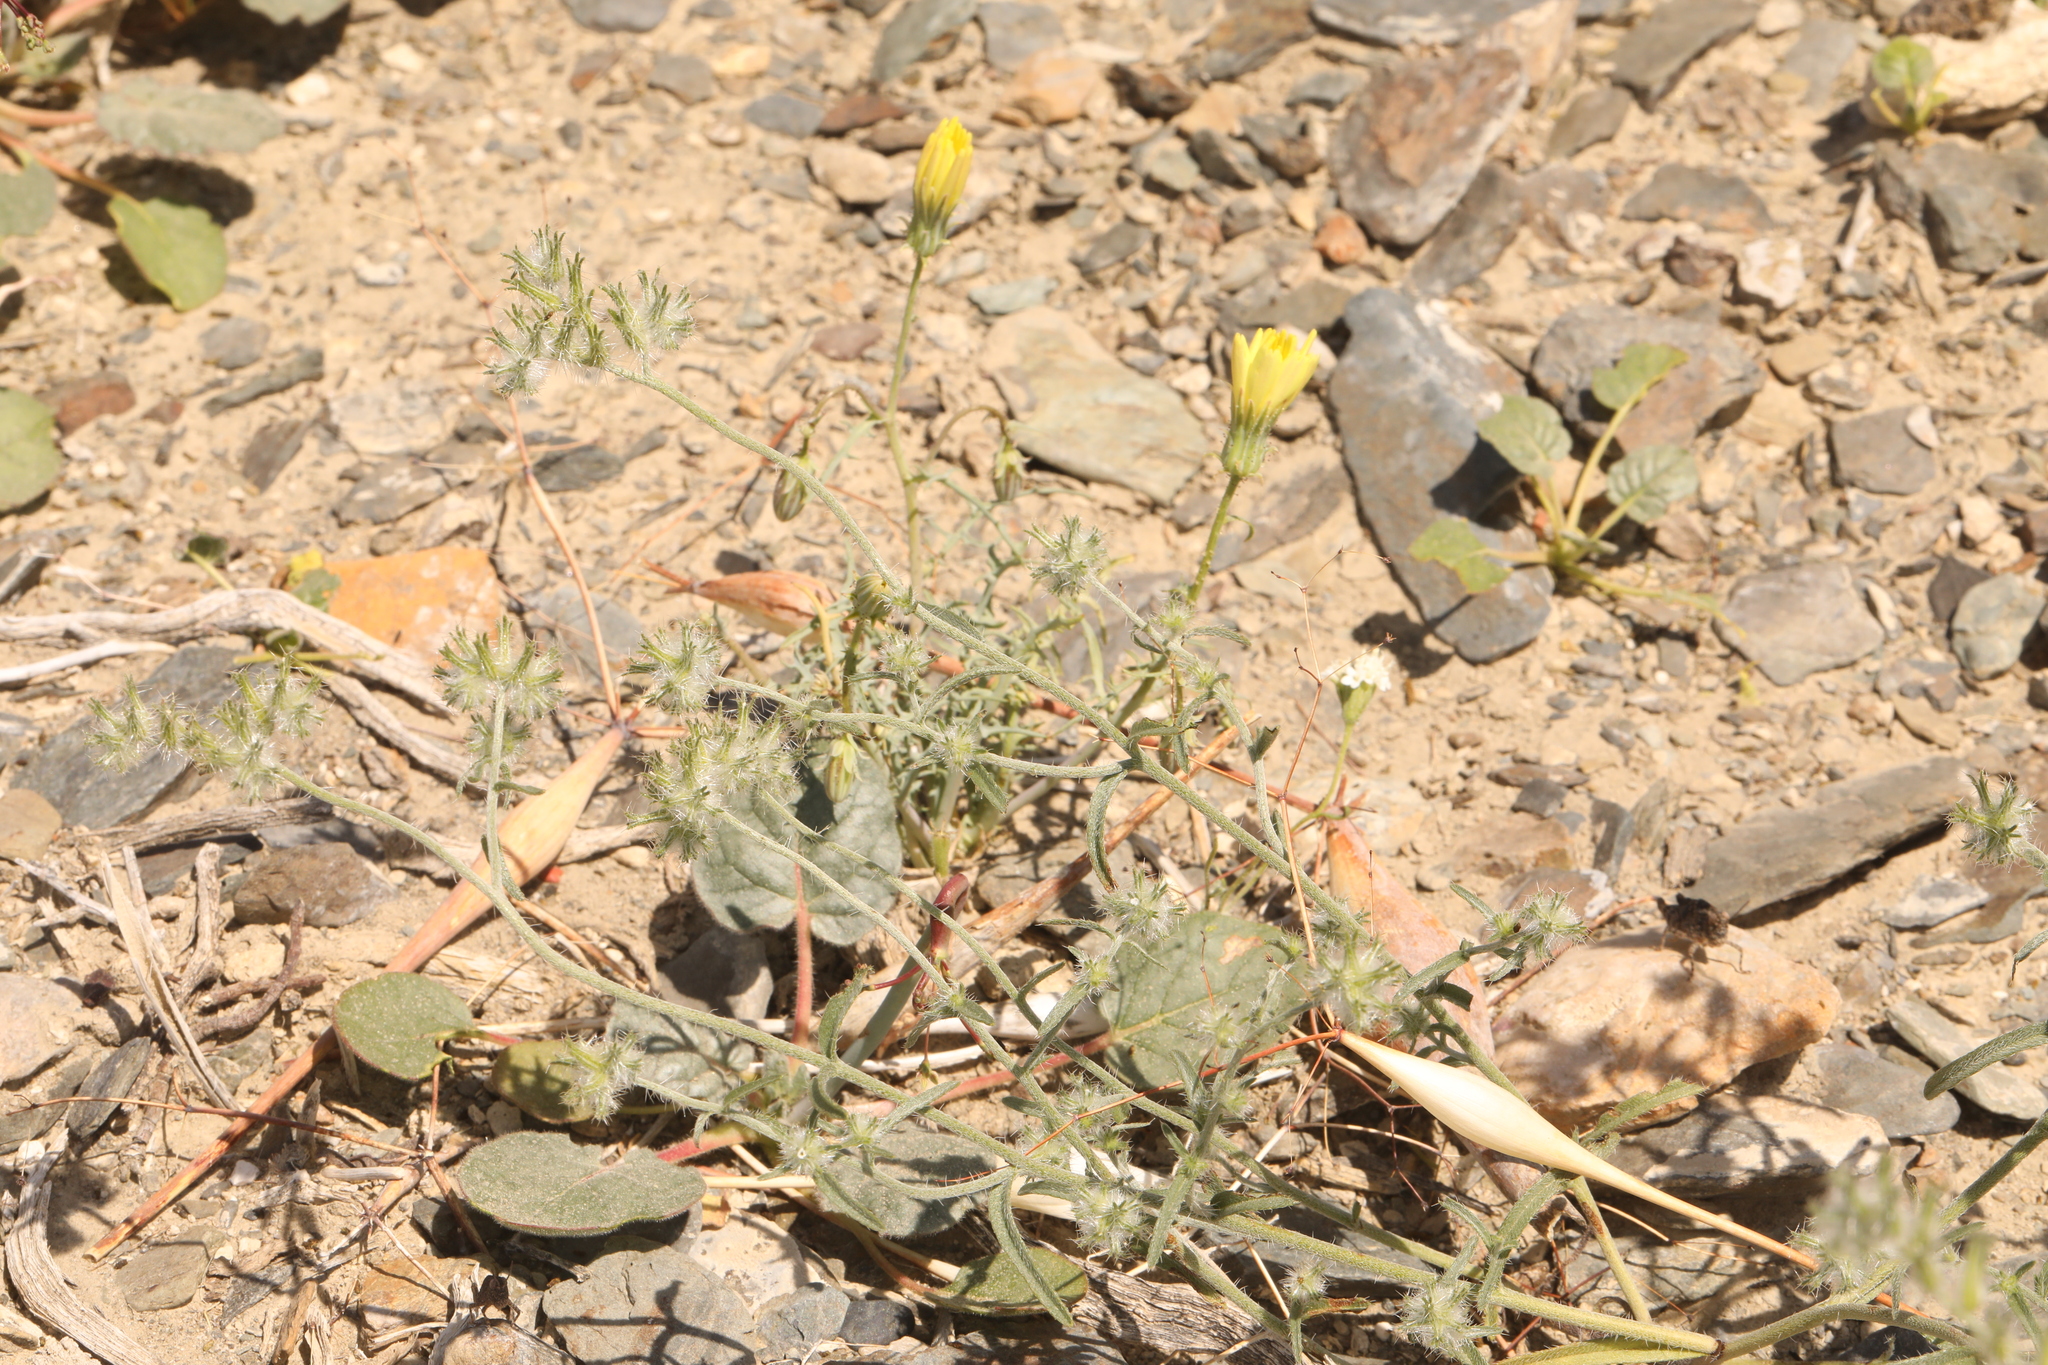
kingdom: Plantae
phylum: Tracheophyta
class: Magnoliopsida
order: Boraginales
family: Boraginaceae
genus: Cryptantha
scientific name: Cryptantha nevadensis
